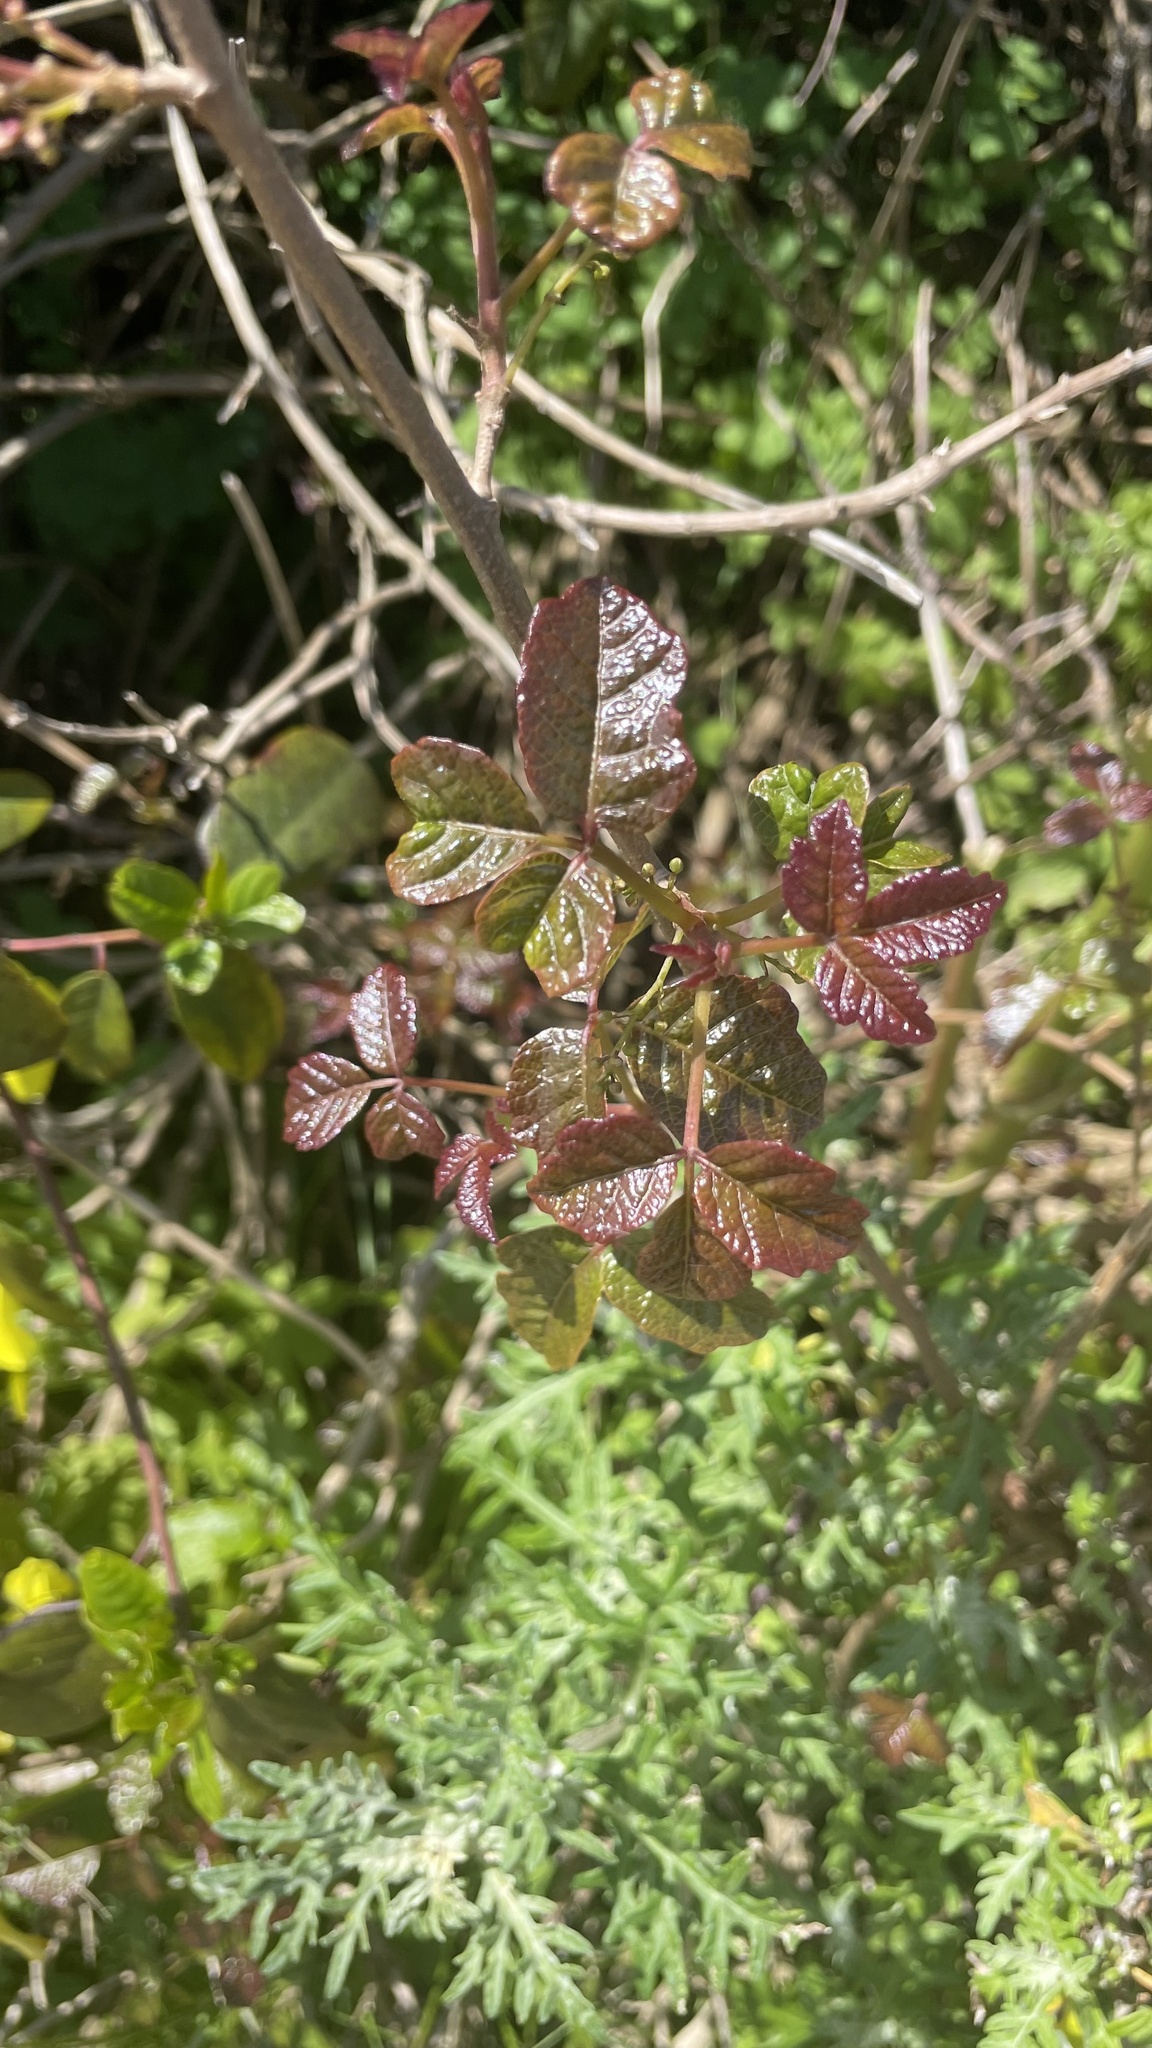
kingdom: Plantae
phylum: Tracheophyta
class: Magnoliopsida
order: Sapindales
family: Anacardiaceae
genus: Toxicodendron
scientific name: Toxicodendron diversilobum
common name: Pacific poison-oak
